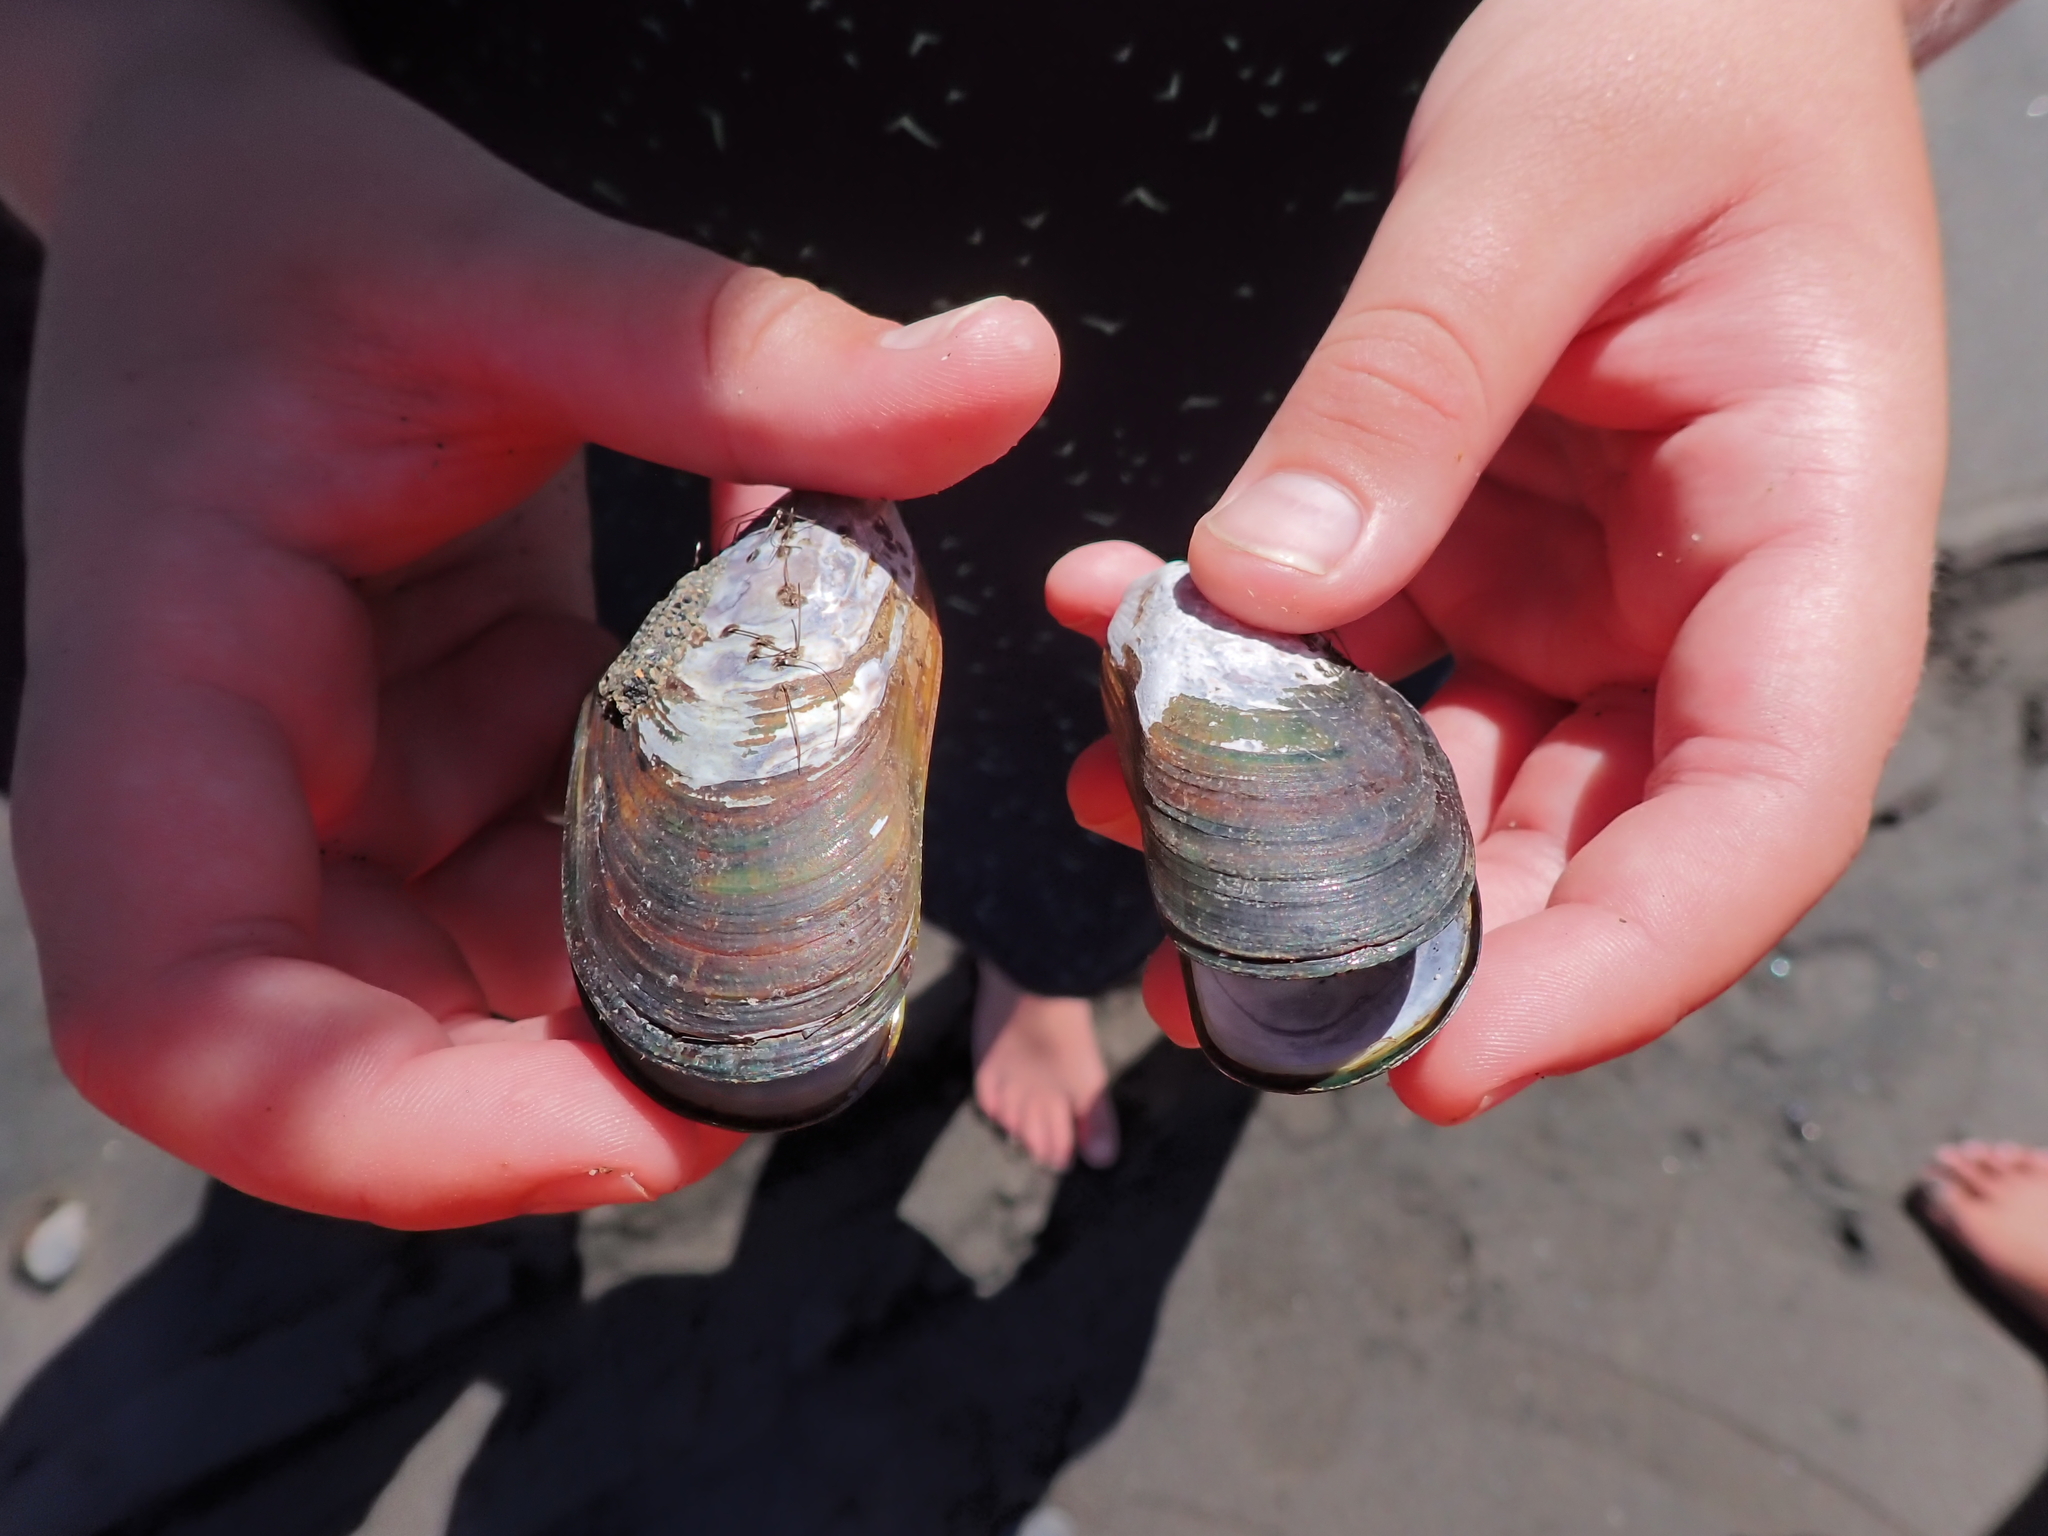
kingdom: Animalia
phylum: Mollusca
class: Bivalvia
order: Mytilida
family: Mytilidae
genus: Perna
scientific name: Perna canaliculus
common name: New zealand greenshelltm
